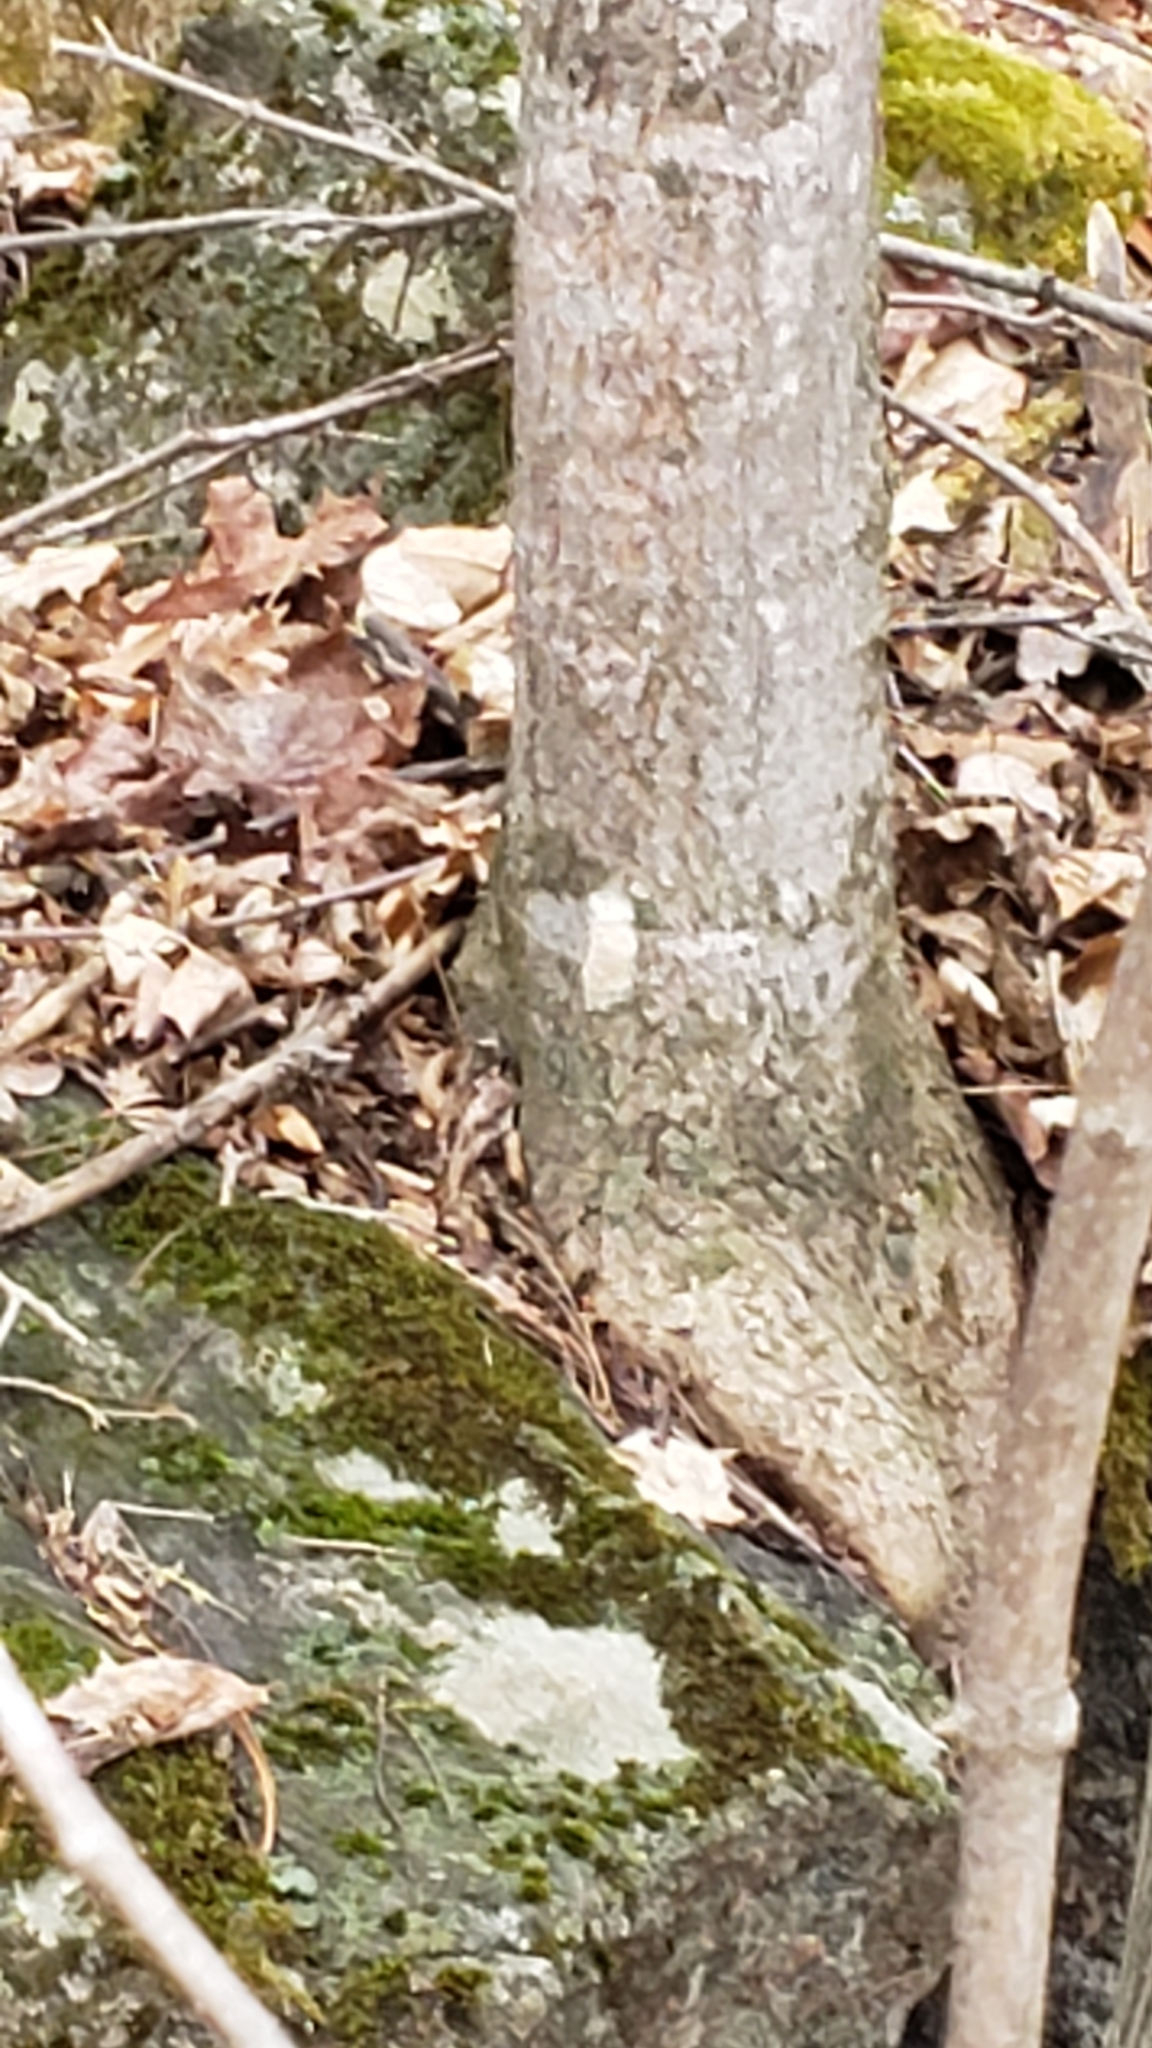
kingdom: Animalia
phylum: Arthropoda
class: Insecta
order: Lepidoptera
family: Erebidae
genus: Lymantria
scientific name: Lymantria dispar
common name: Gypsy moth
